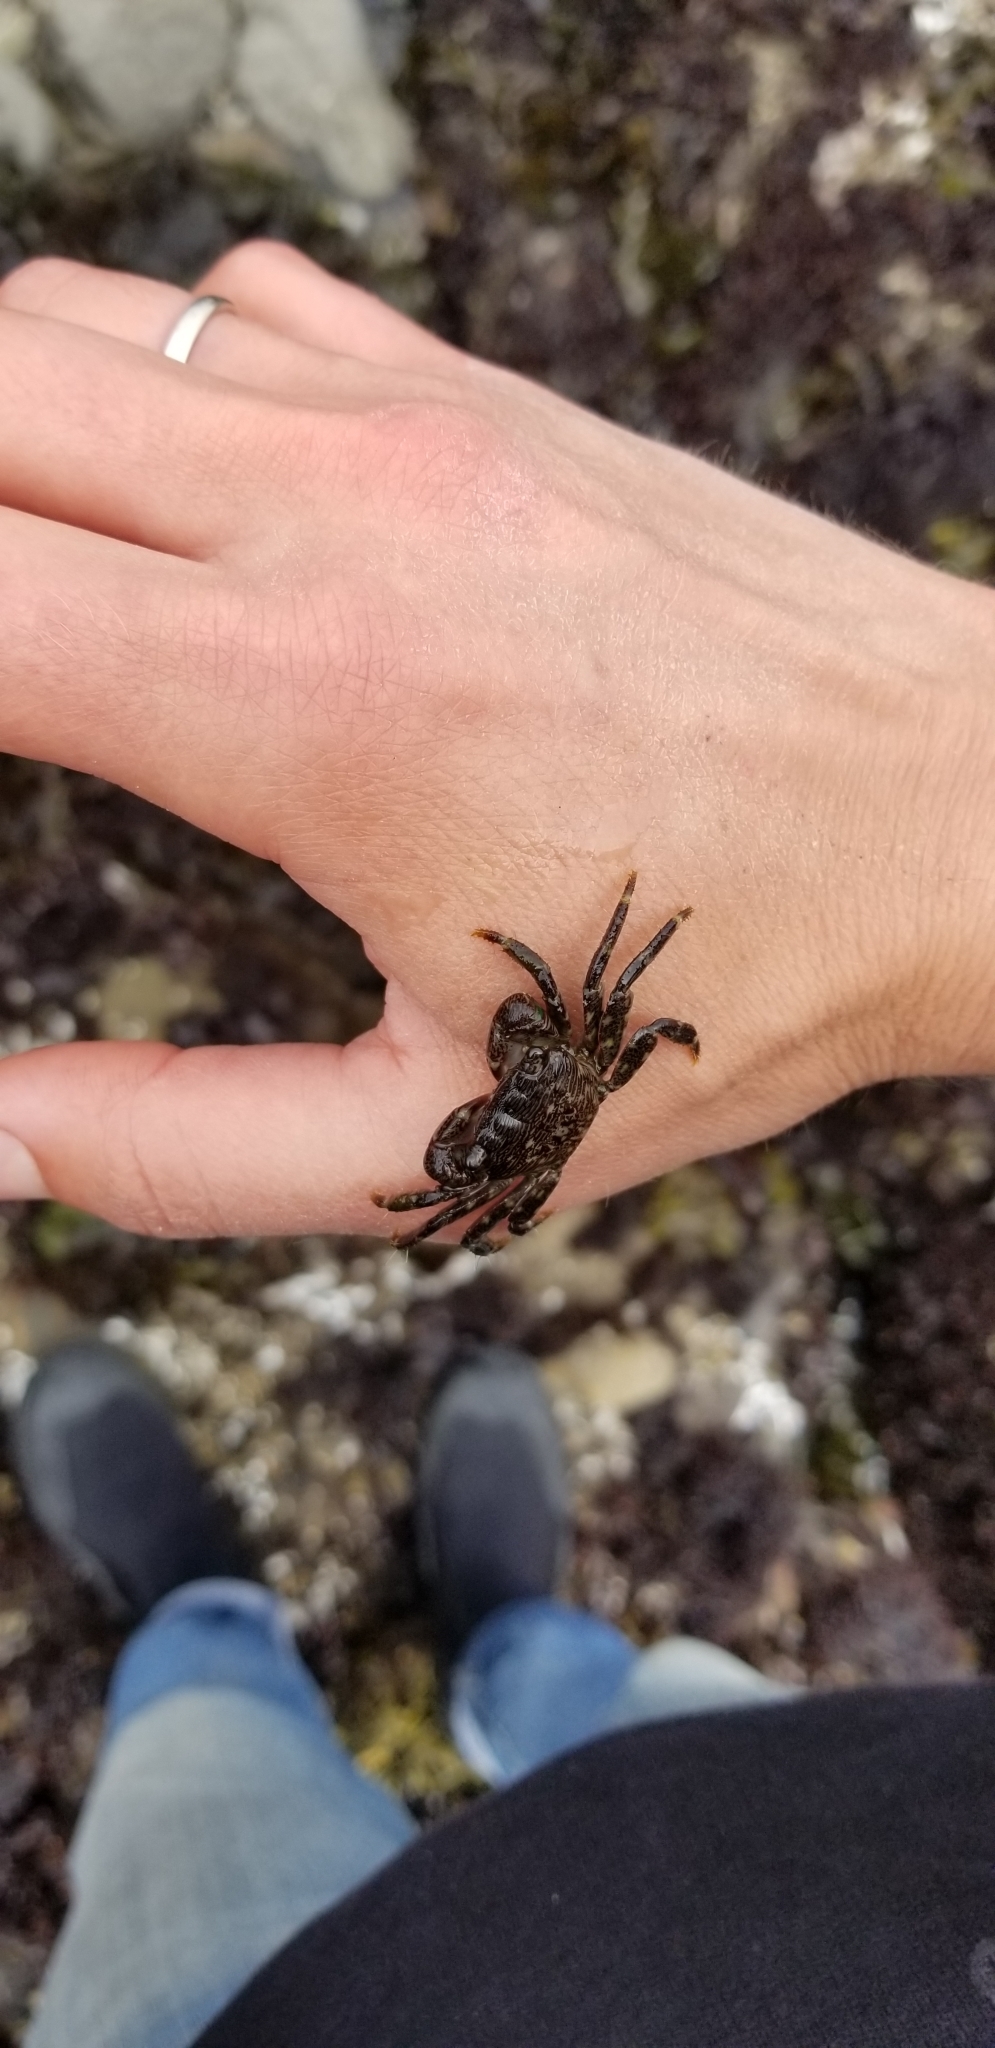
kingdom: Animalia
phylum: Arthropoda
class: Malacostraca
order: Decapoda
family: Grapsidae
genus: Pachygrapsus
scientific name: Pachygrapsus crassipes
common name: Striped shore crab
